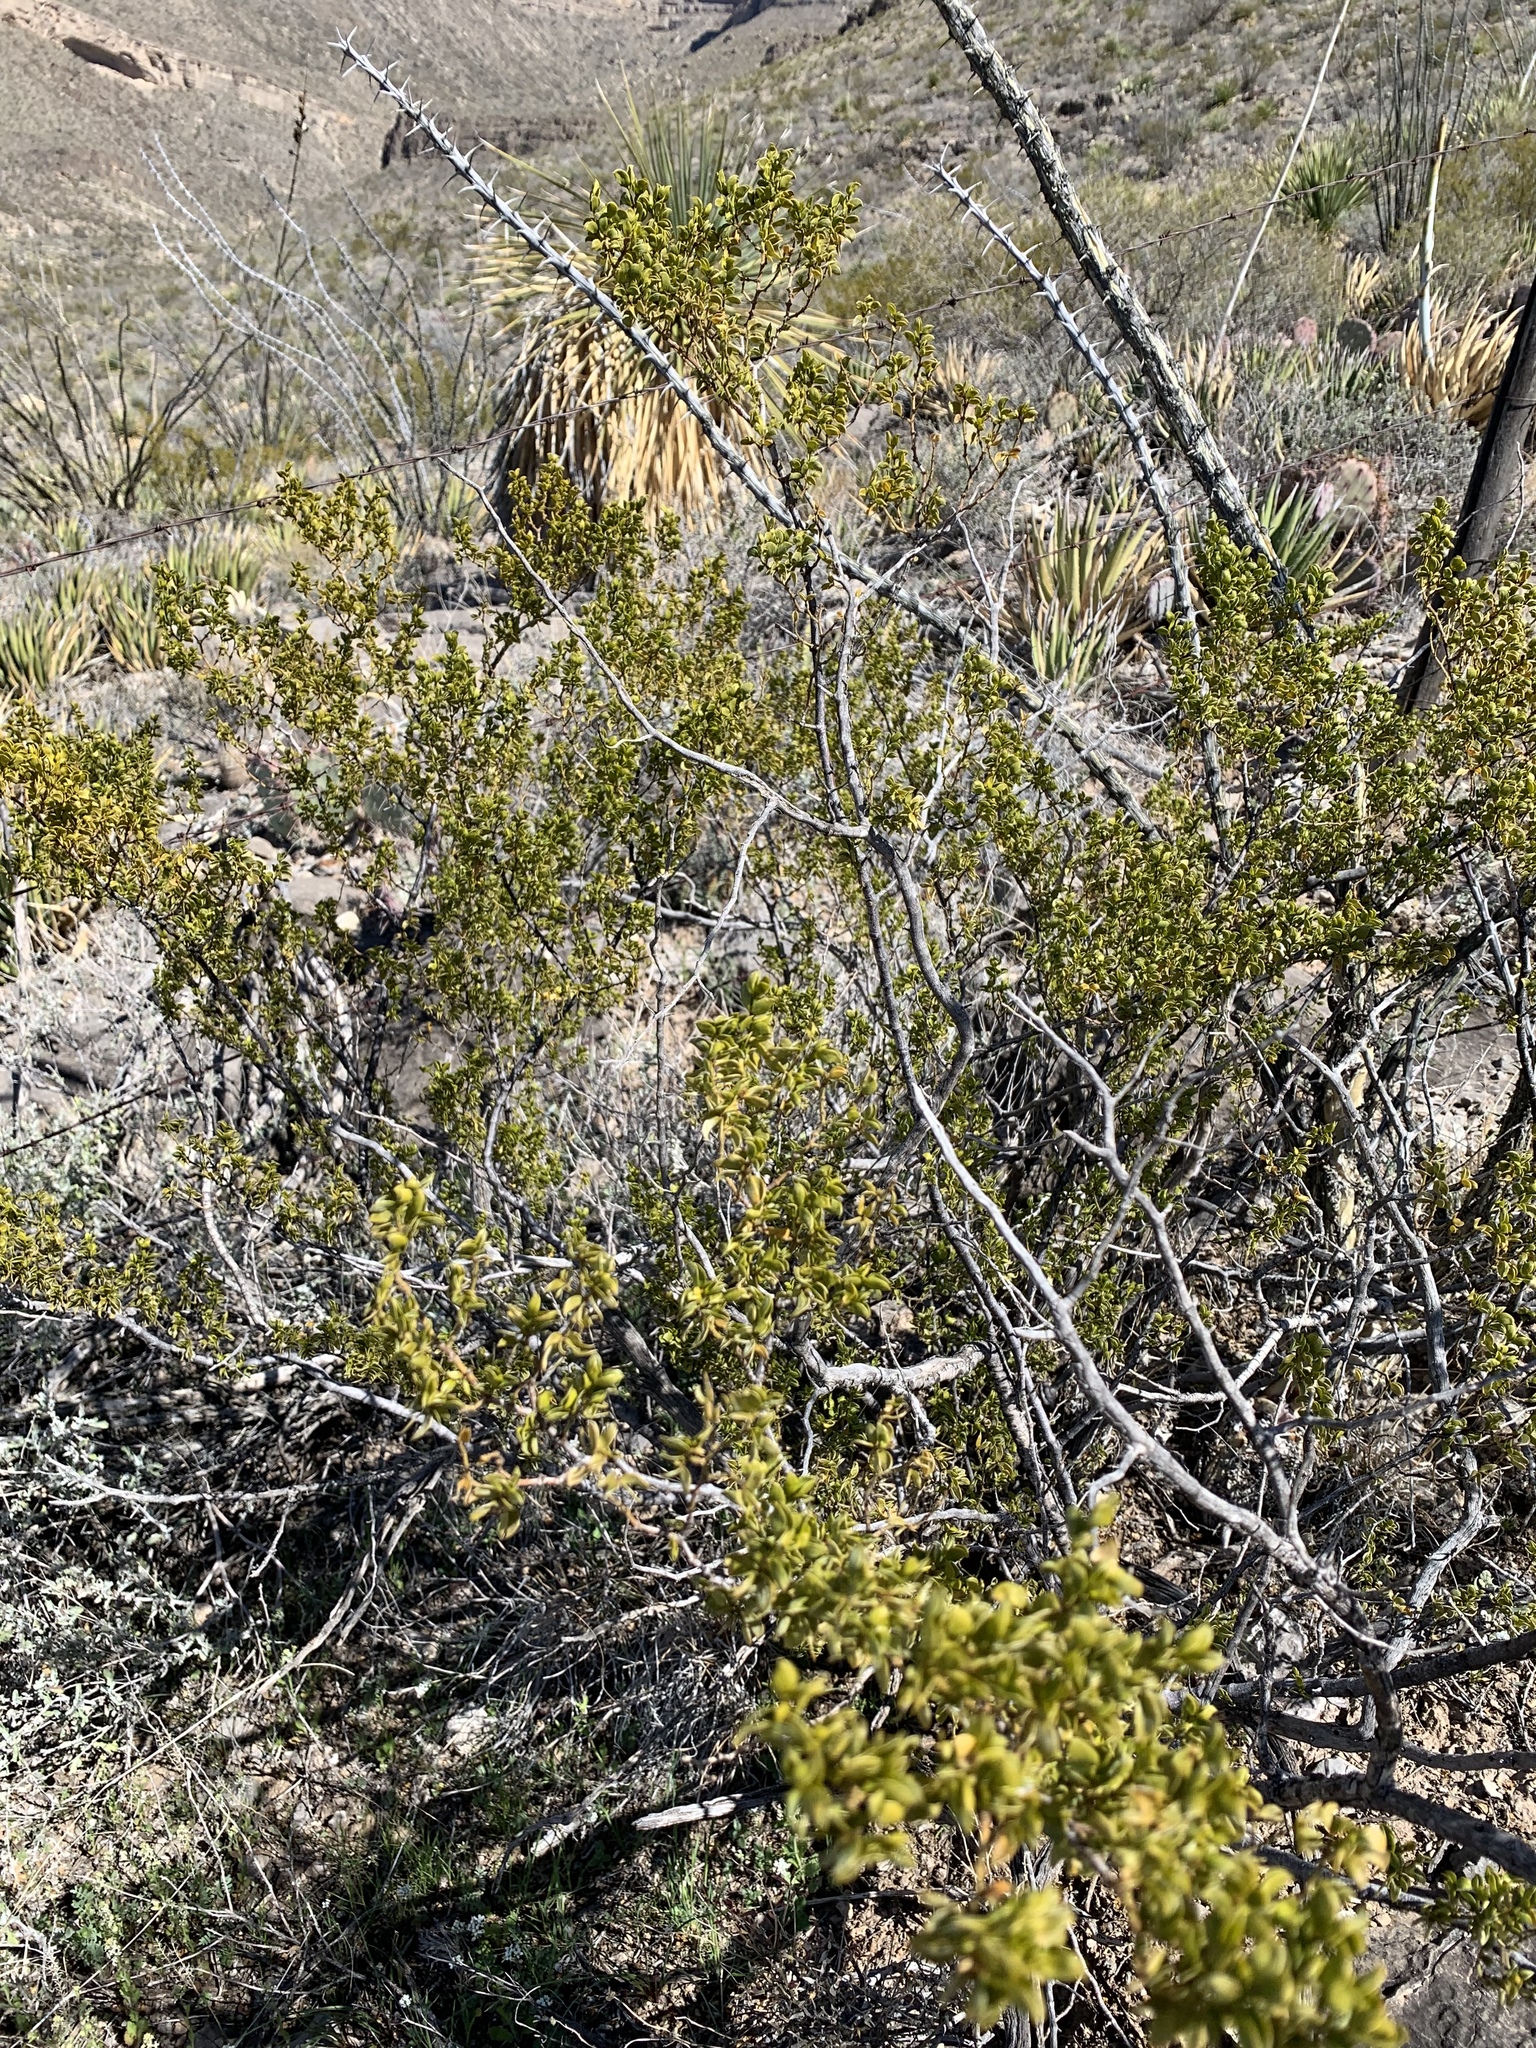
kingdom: Plantae
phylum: Tracheophyta
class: Magnoliopsida
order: Zygophyllales
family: Zygophyllaceae
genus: Larrea
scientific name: Larrea tridentata
